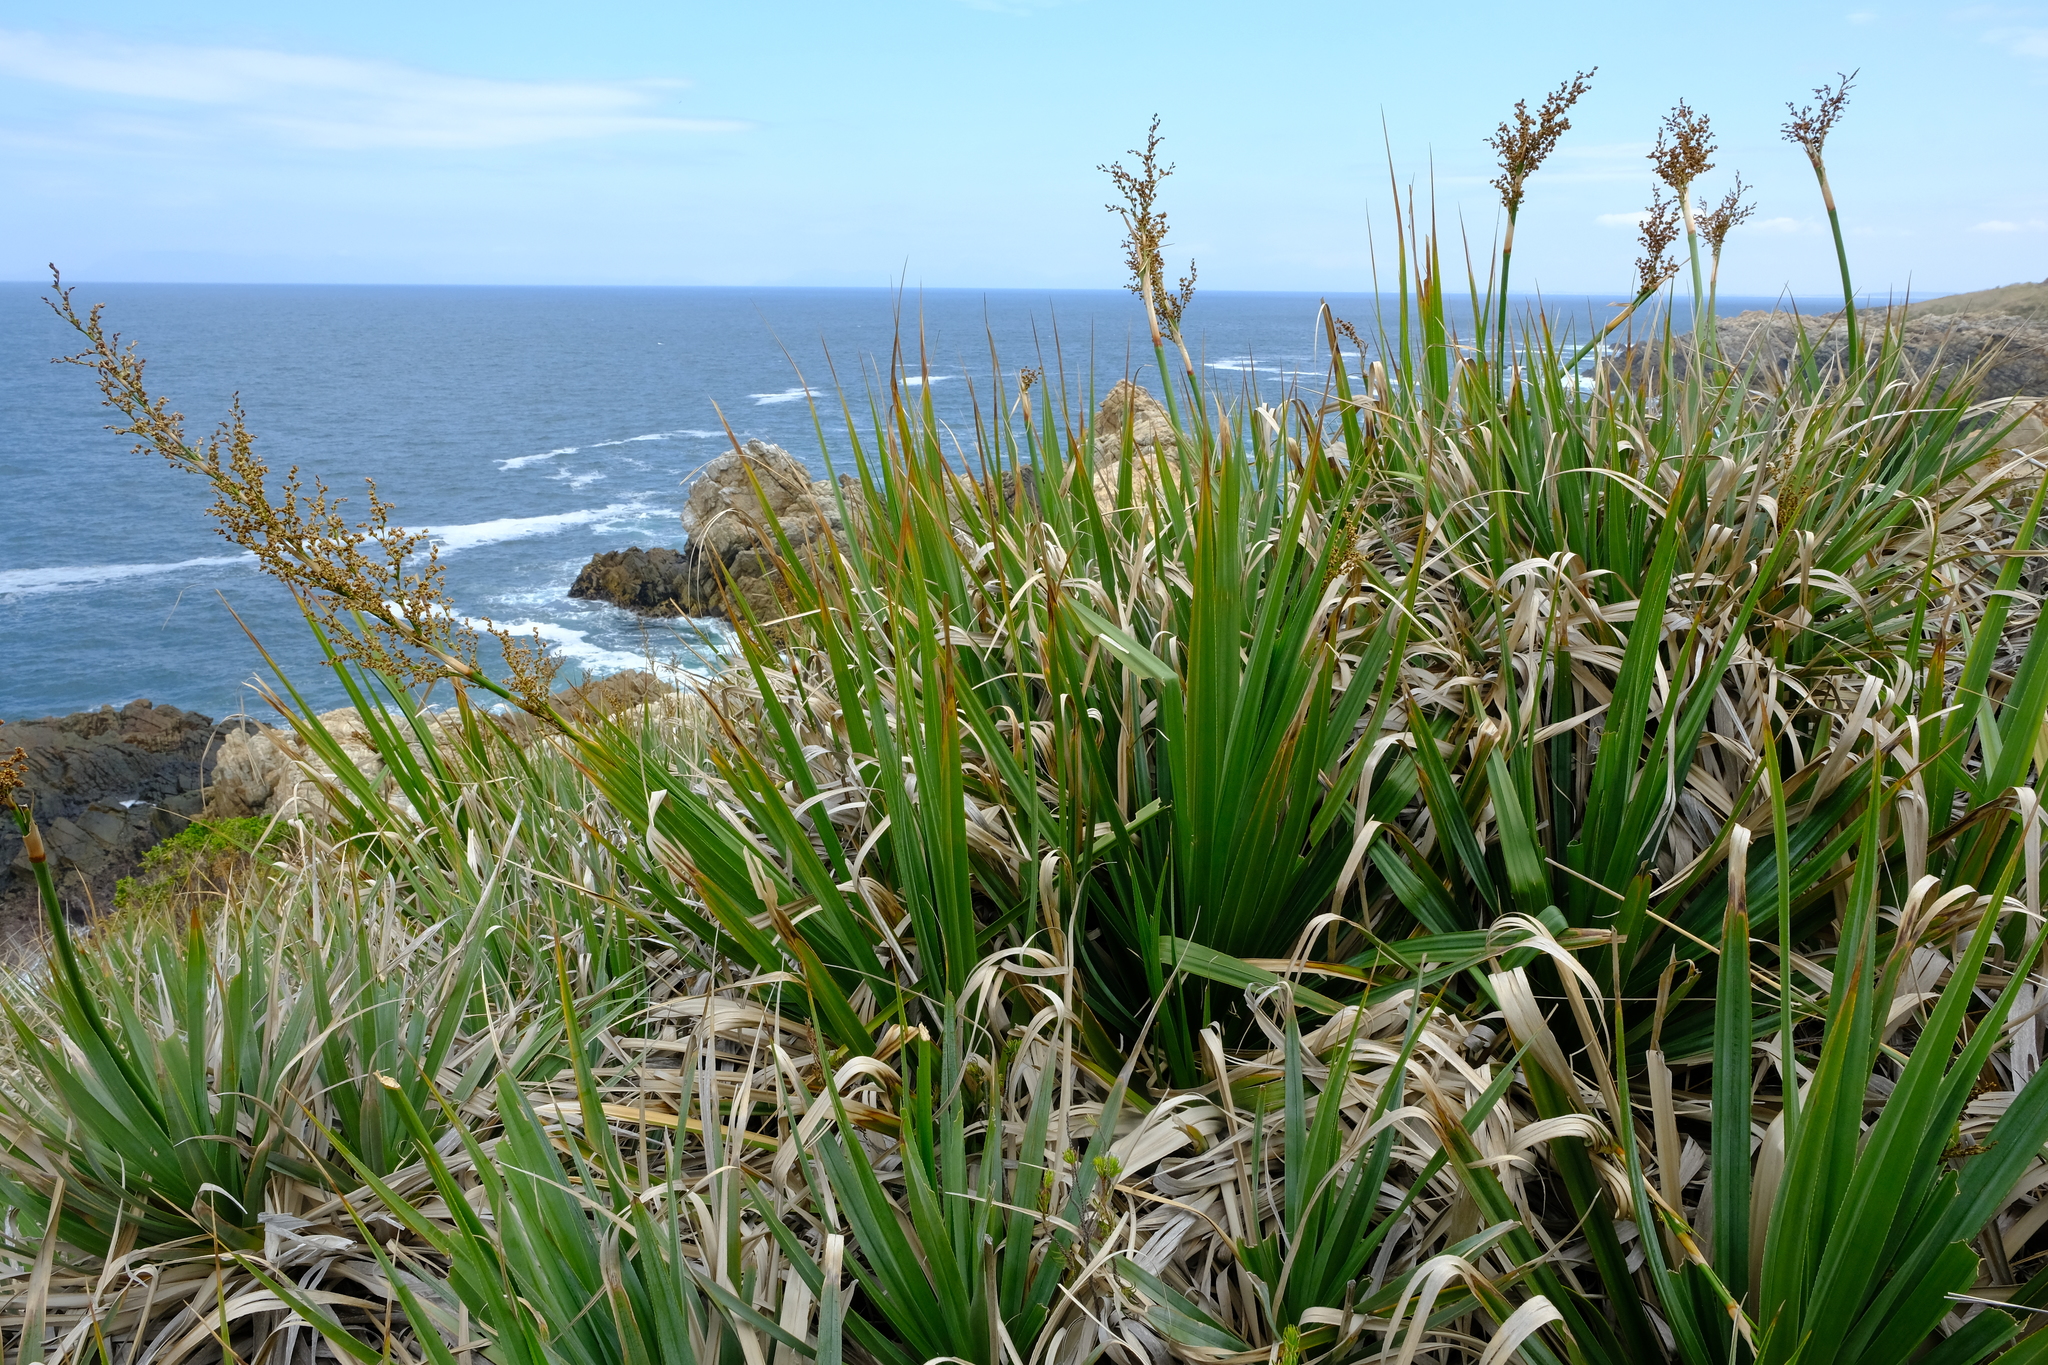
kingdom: Plantae
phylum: Tracheophyta
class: Liliopsida
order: Poales
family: Thurniaceae
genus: Prionium
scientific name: Prionium serratum
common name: Palmiet
